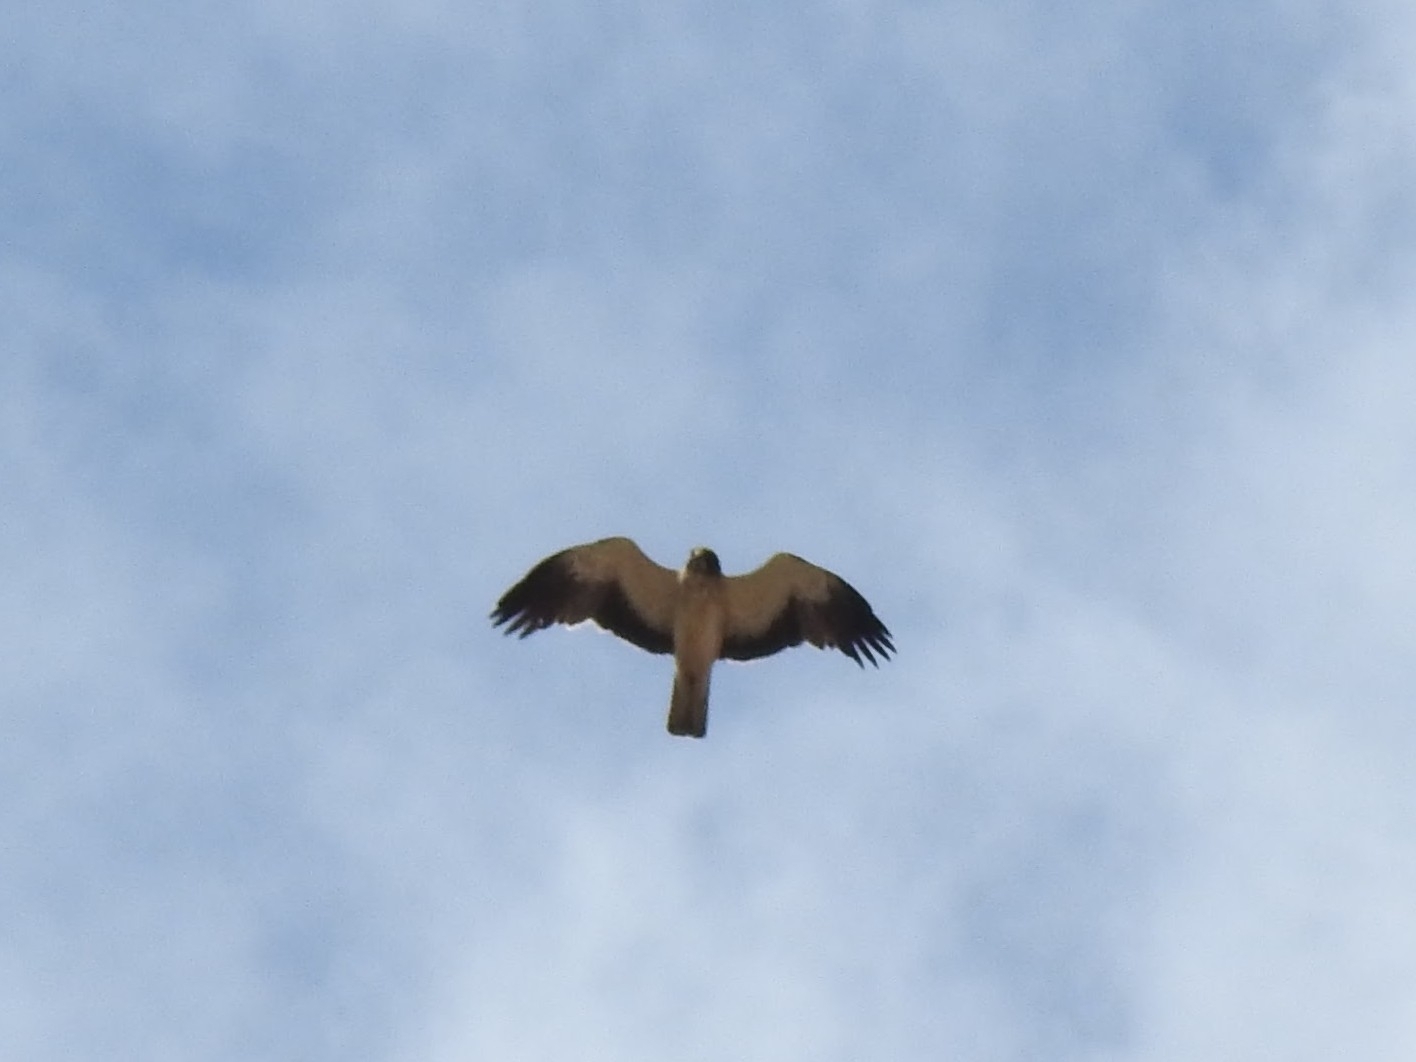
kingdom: Animalia
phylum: Chordata
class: Aves
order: Accipitriformes
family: Accipitridae
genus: Hieraaetus
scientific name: Hieraaetus pennatus
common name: Booted eagle
